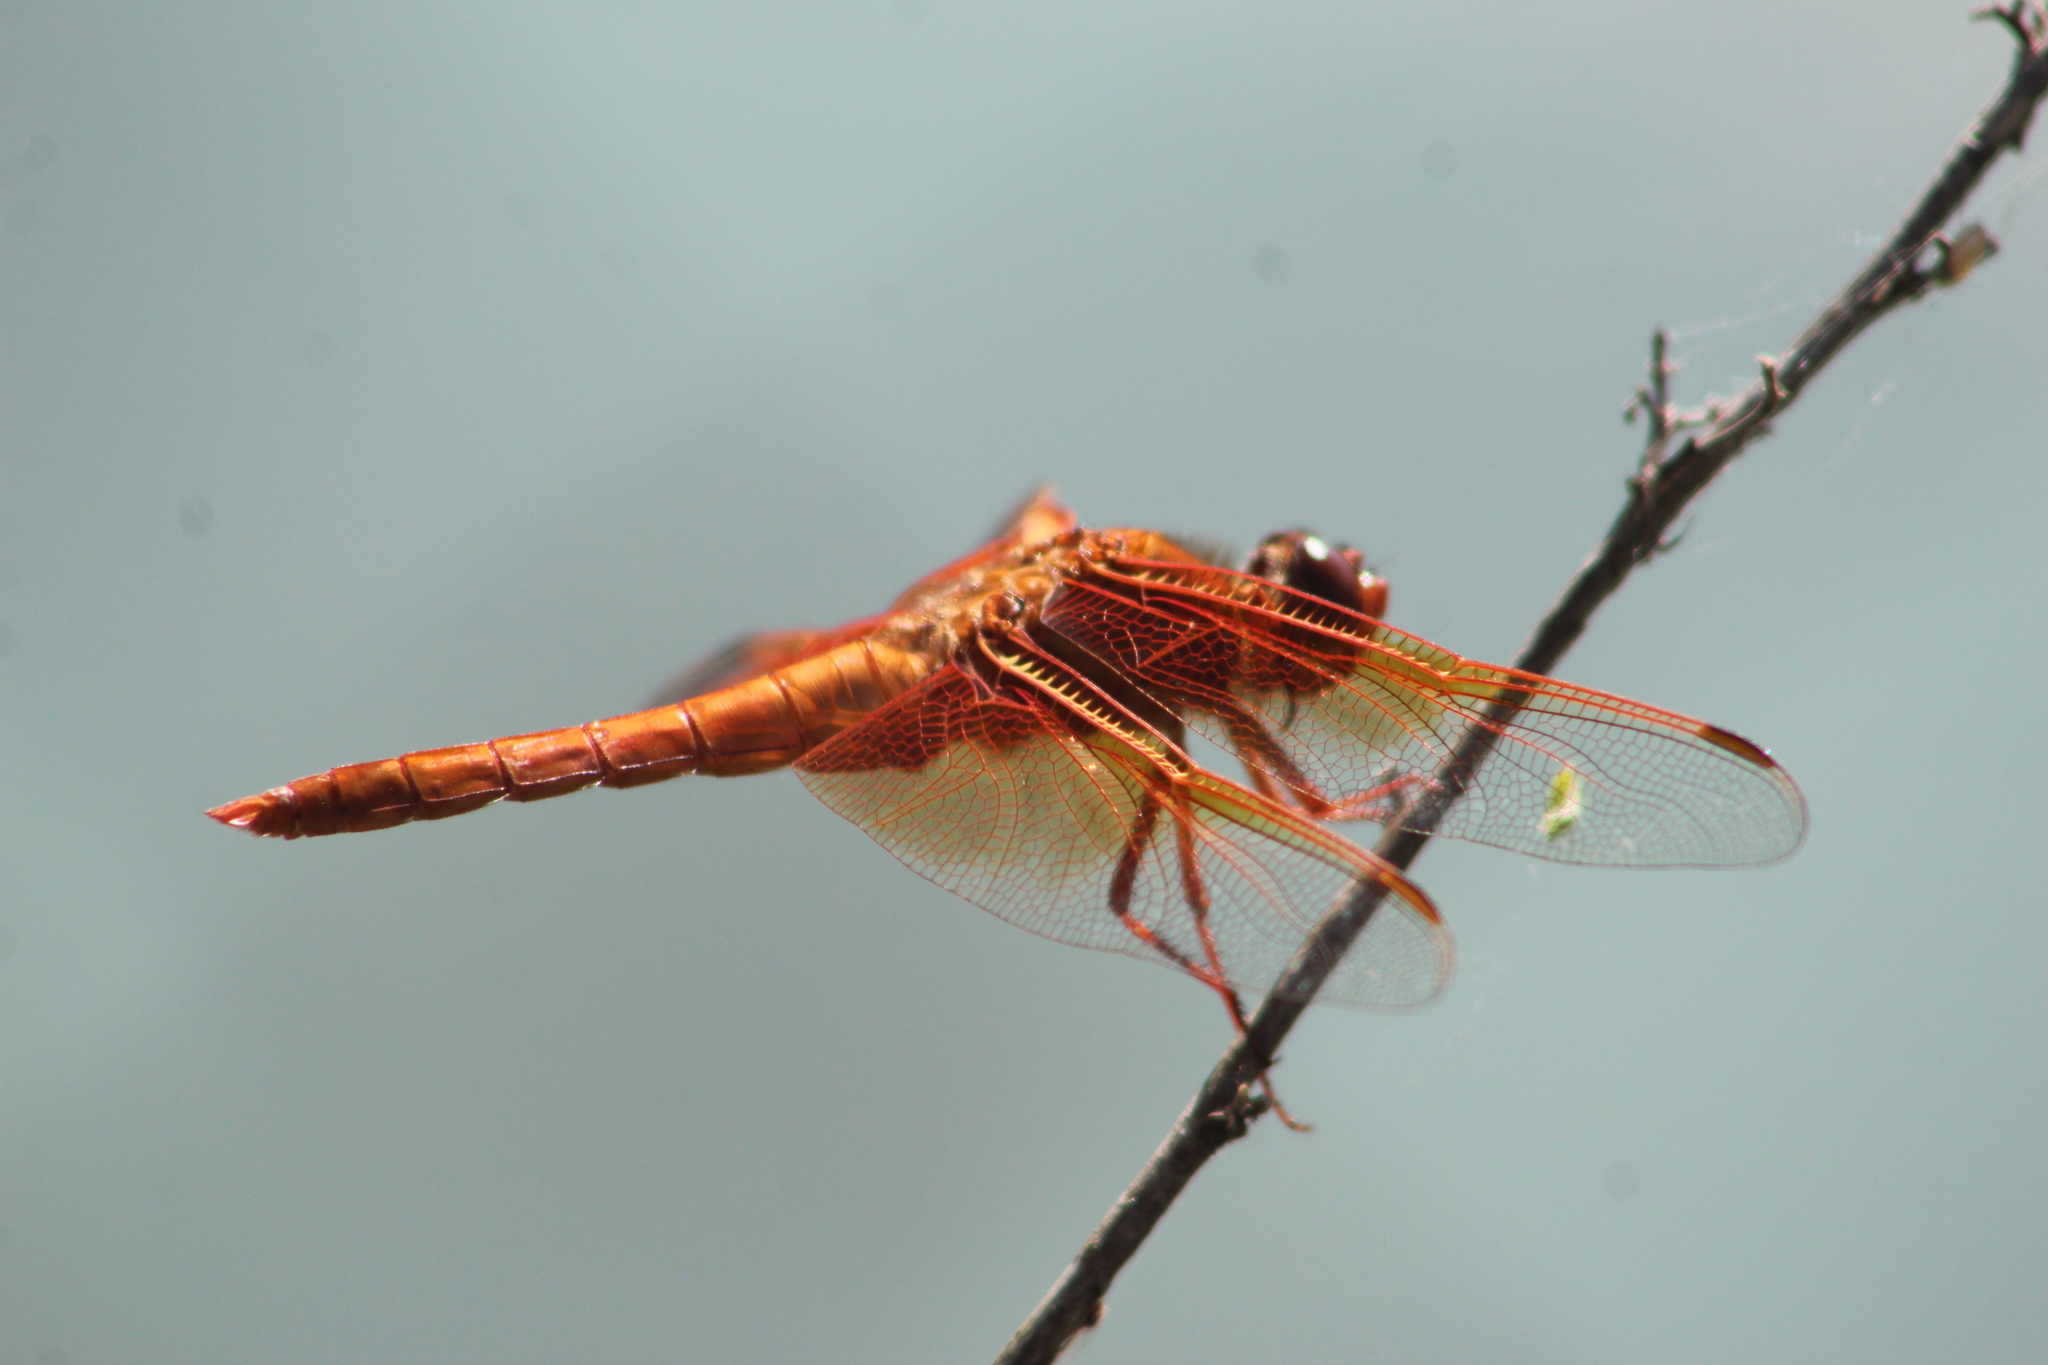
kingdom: Animalia
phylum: Arthropoda
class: Insecta
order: Odonata
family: Libellulidae
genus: Libellula
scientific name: Libellula saturata
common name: Flame skimmer
